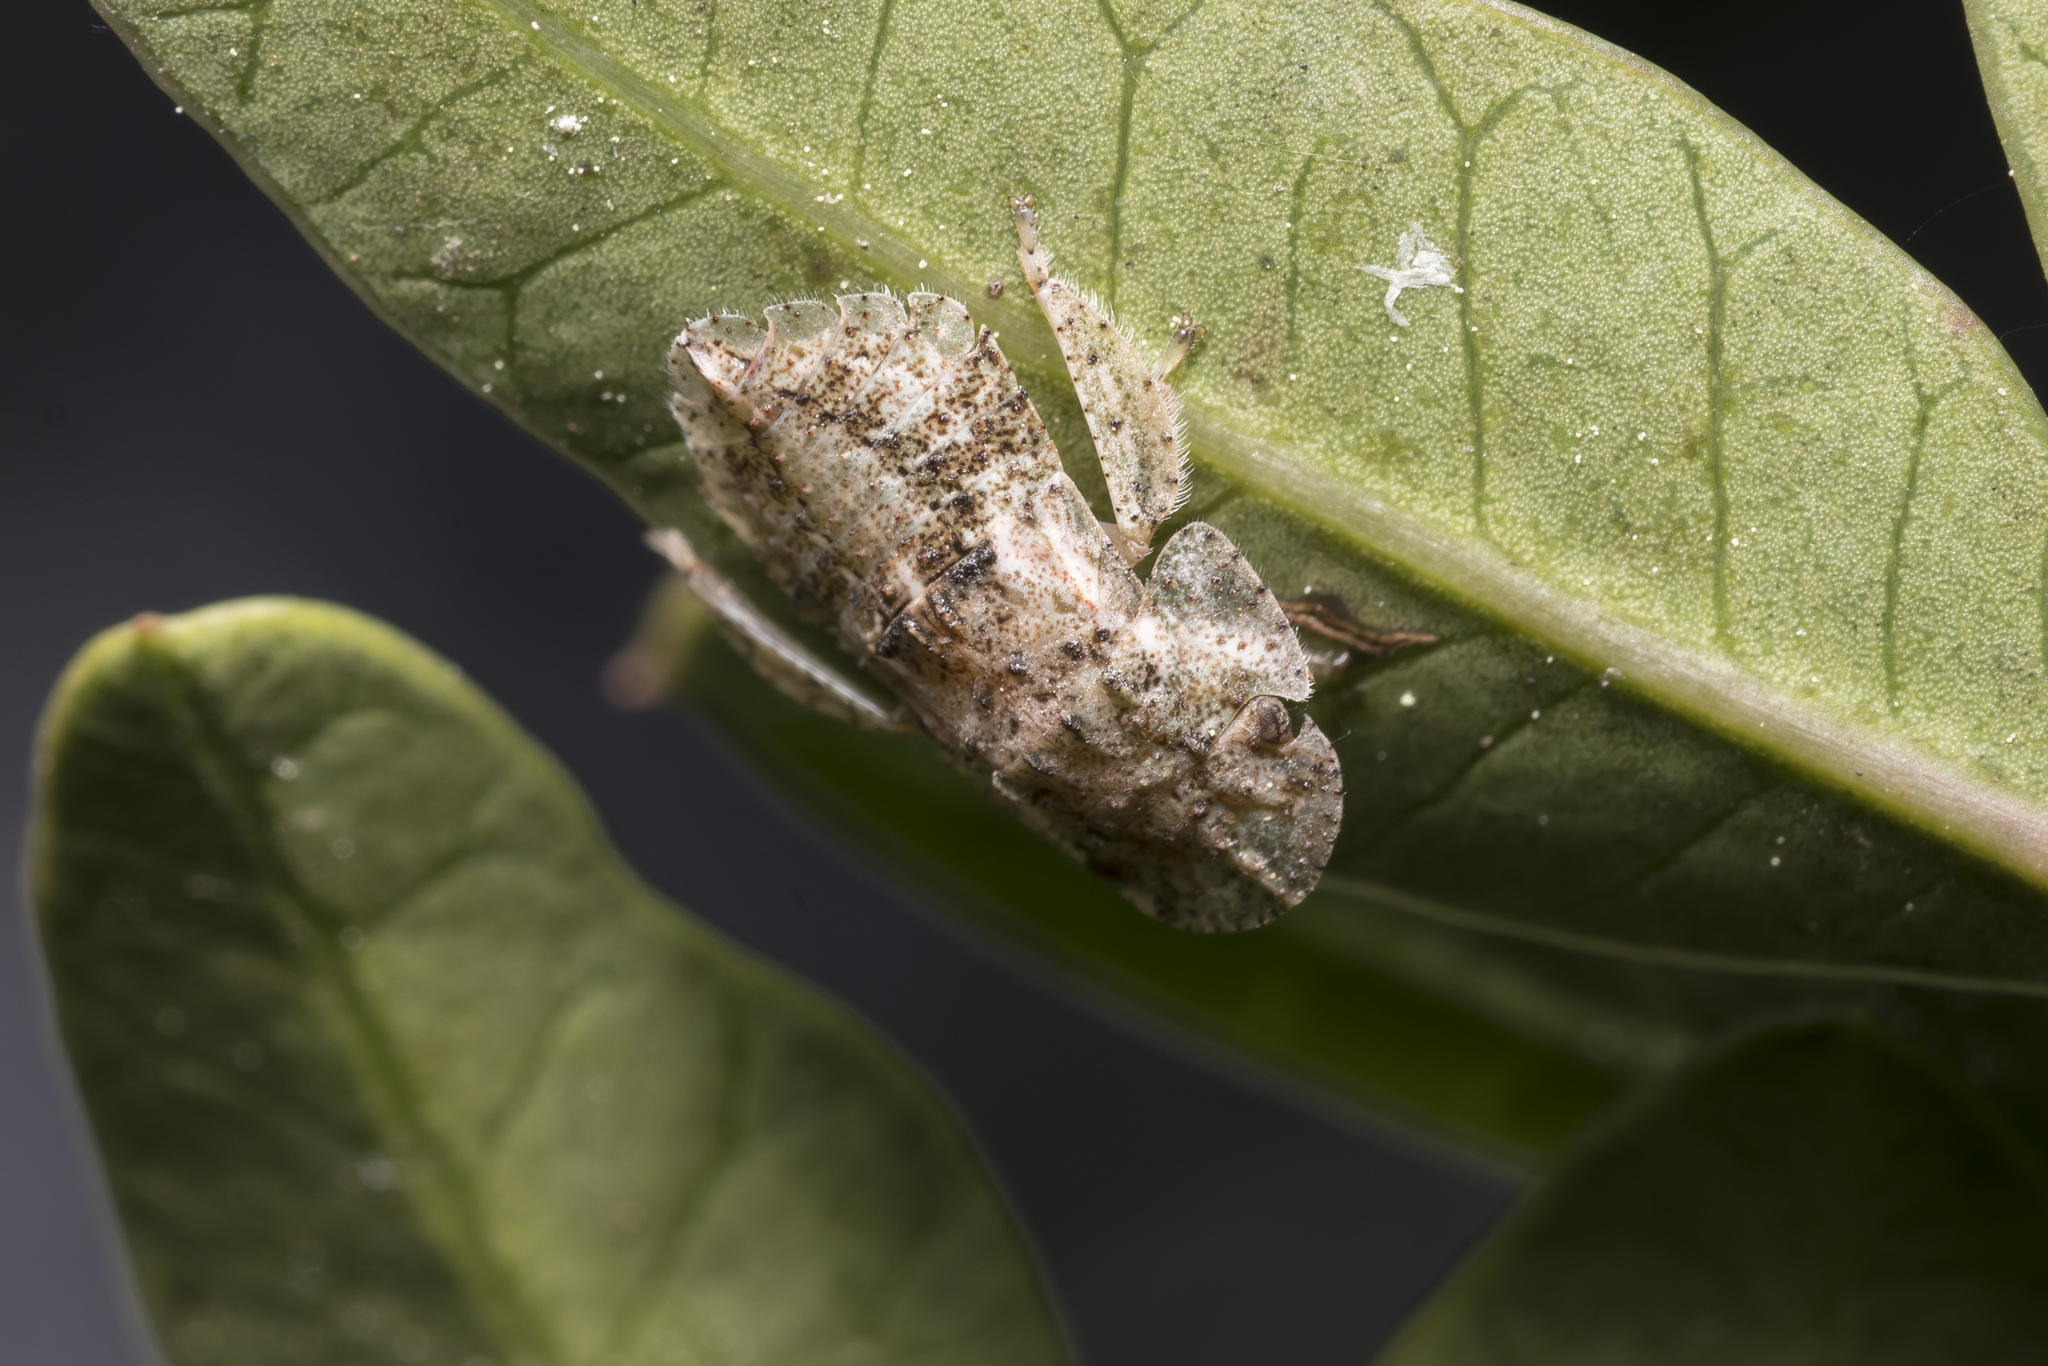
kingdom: Animalia
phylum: Arthropoda
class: Insecta
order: Hemiptera
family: Cicadellidae
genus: Ledra
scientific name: Ledra aurita
